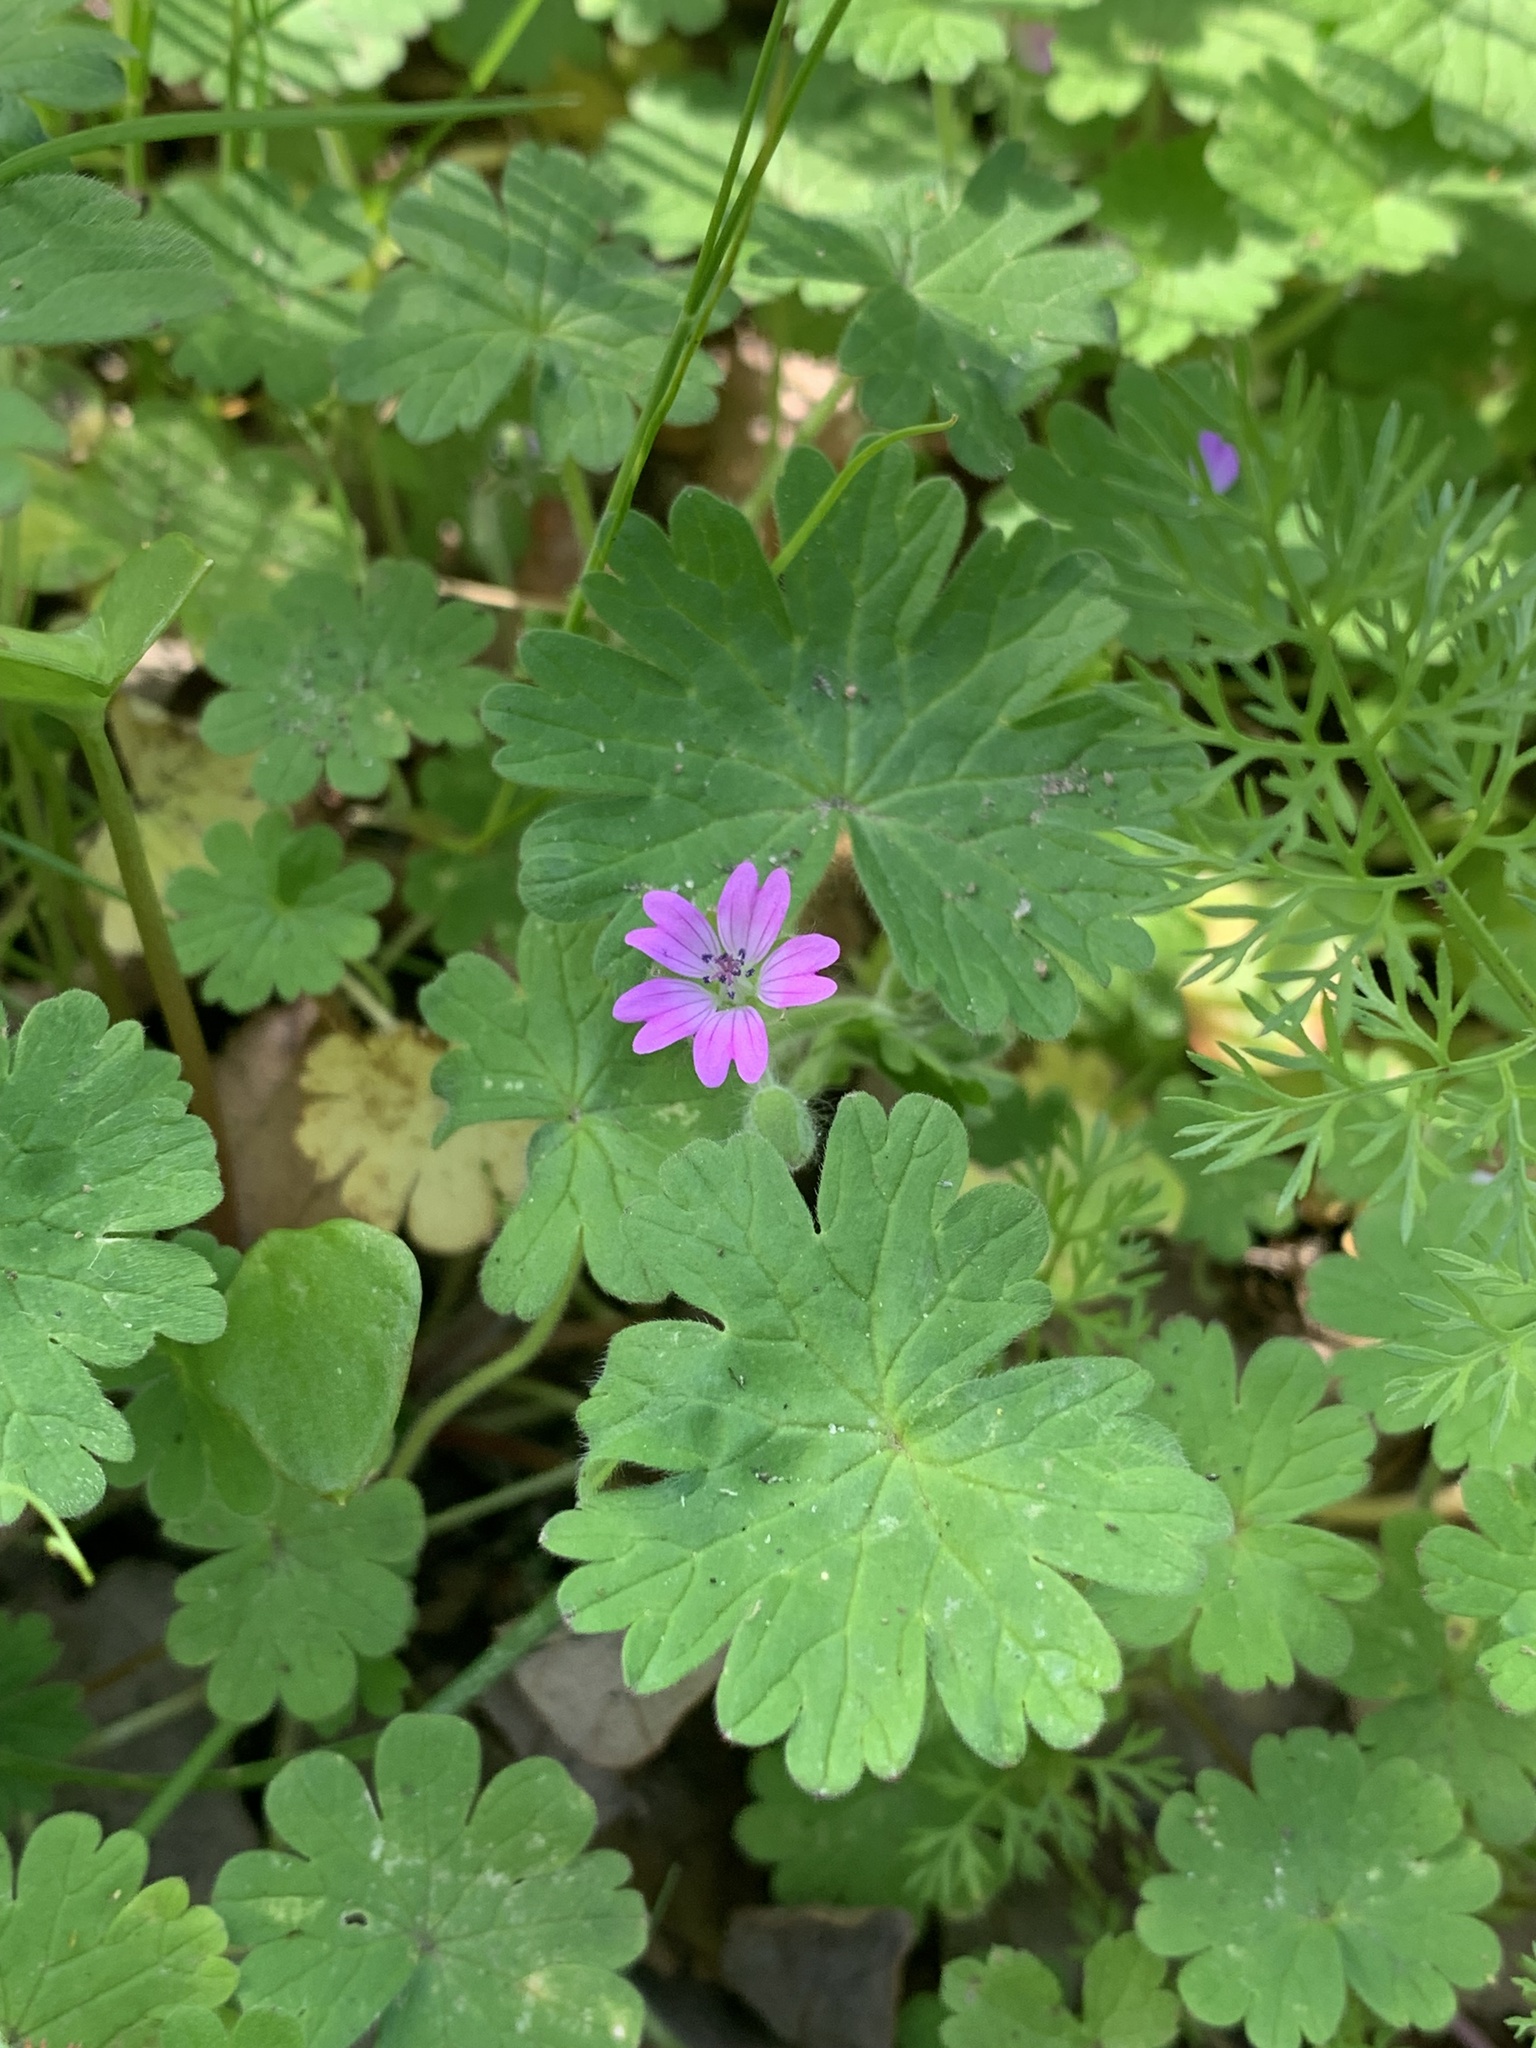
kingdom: Plantae
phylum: Tracheophyta
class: Magnoliopsida
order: Geraniales
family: Geraniaceae
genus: Geranium
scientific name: Geranium molle
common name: Dove's-foot crane's-bill
